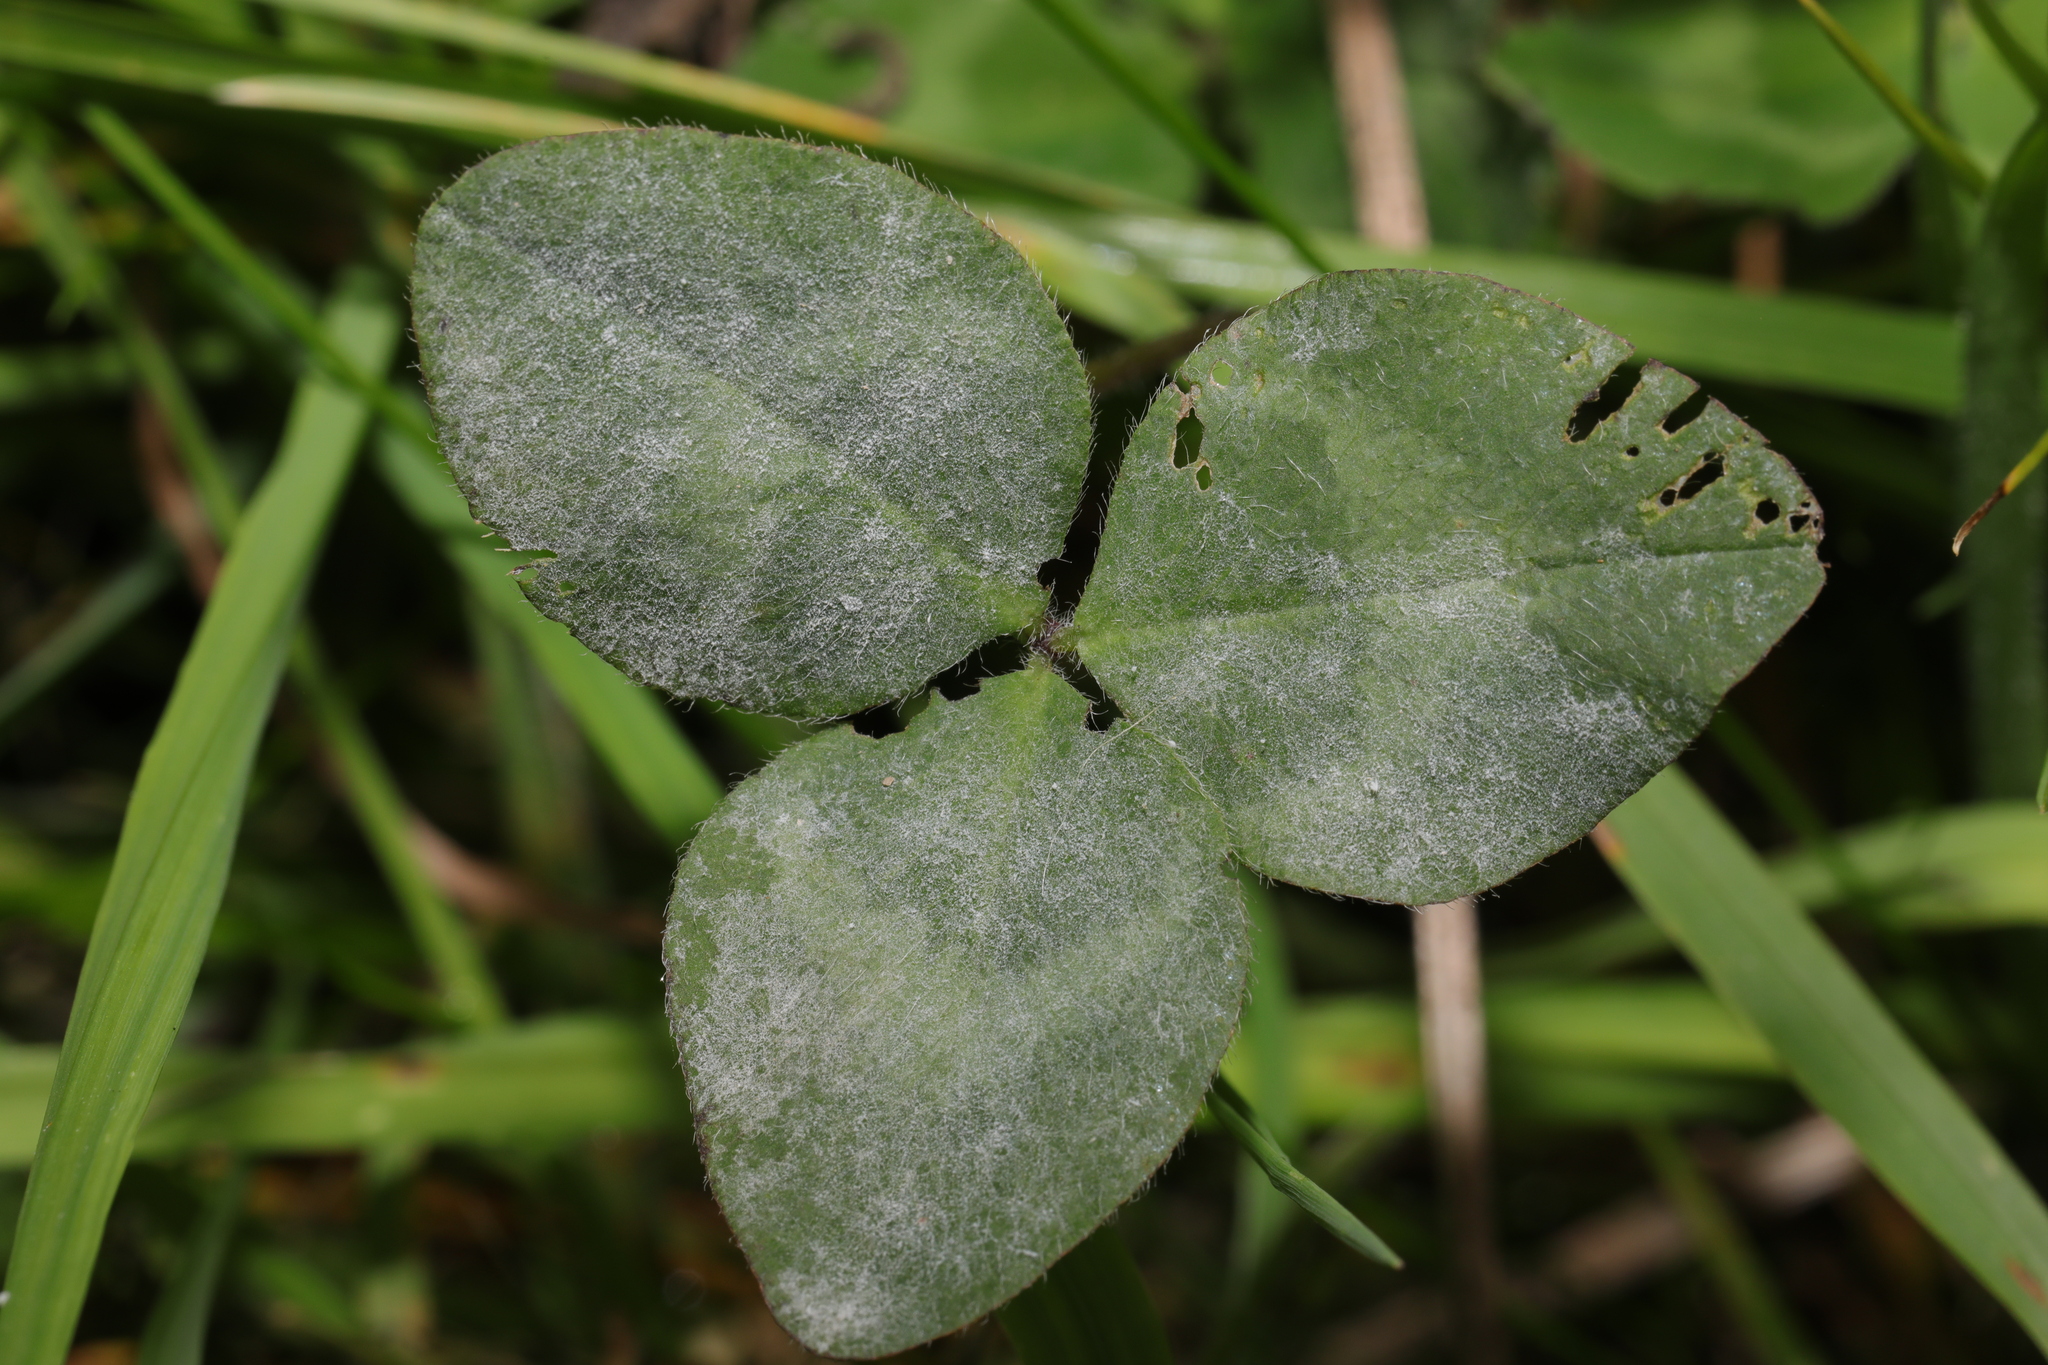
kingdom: Plantae
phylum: Tracheophyta
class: Magnoliopsida
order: Fabales
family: Fabaceae
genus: Trifolium
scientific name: Trifolium pratense
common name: Red clover
